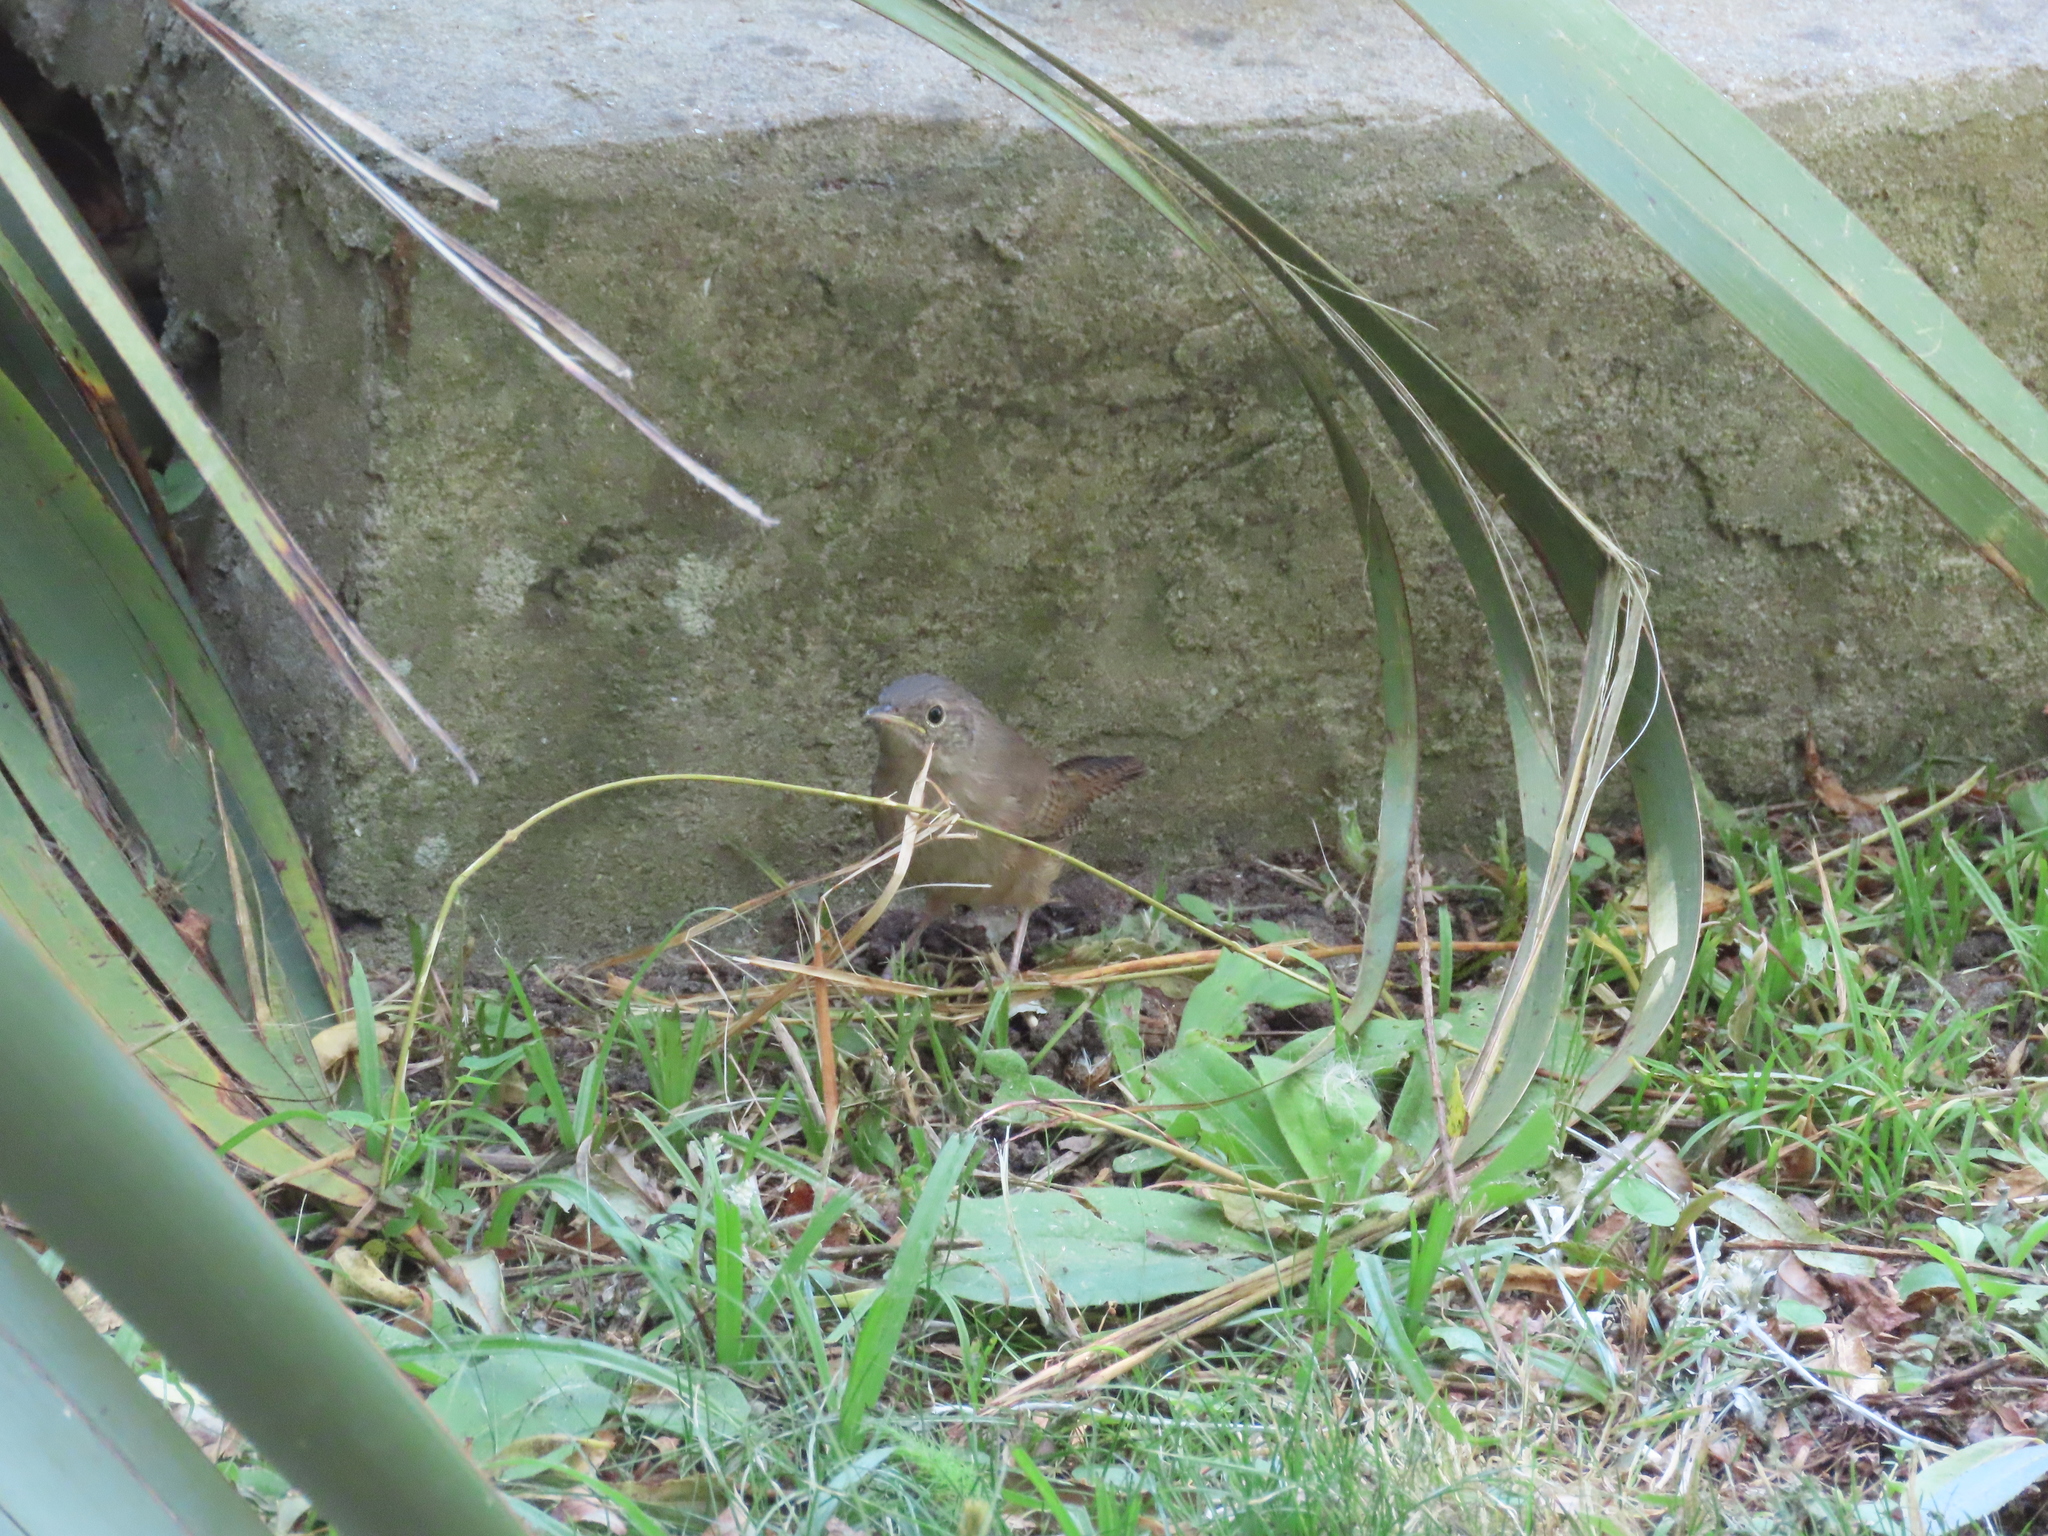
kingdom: Animalia
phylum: Chordata
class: Aves
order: Passeriformes
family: Troglodytidae
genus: Troglodytes
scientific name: Troglodytes aedon
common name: House wren
